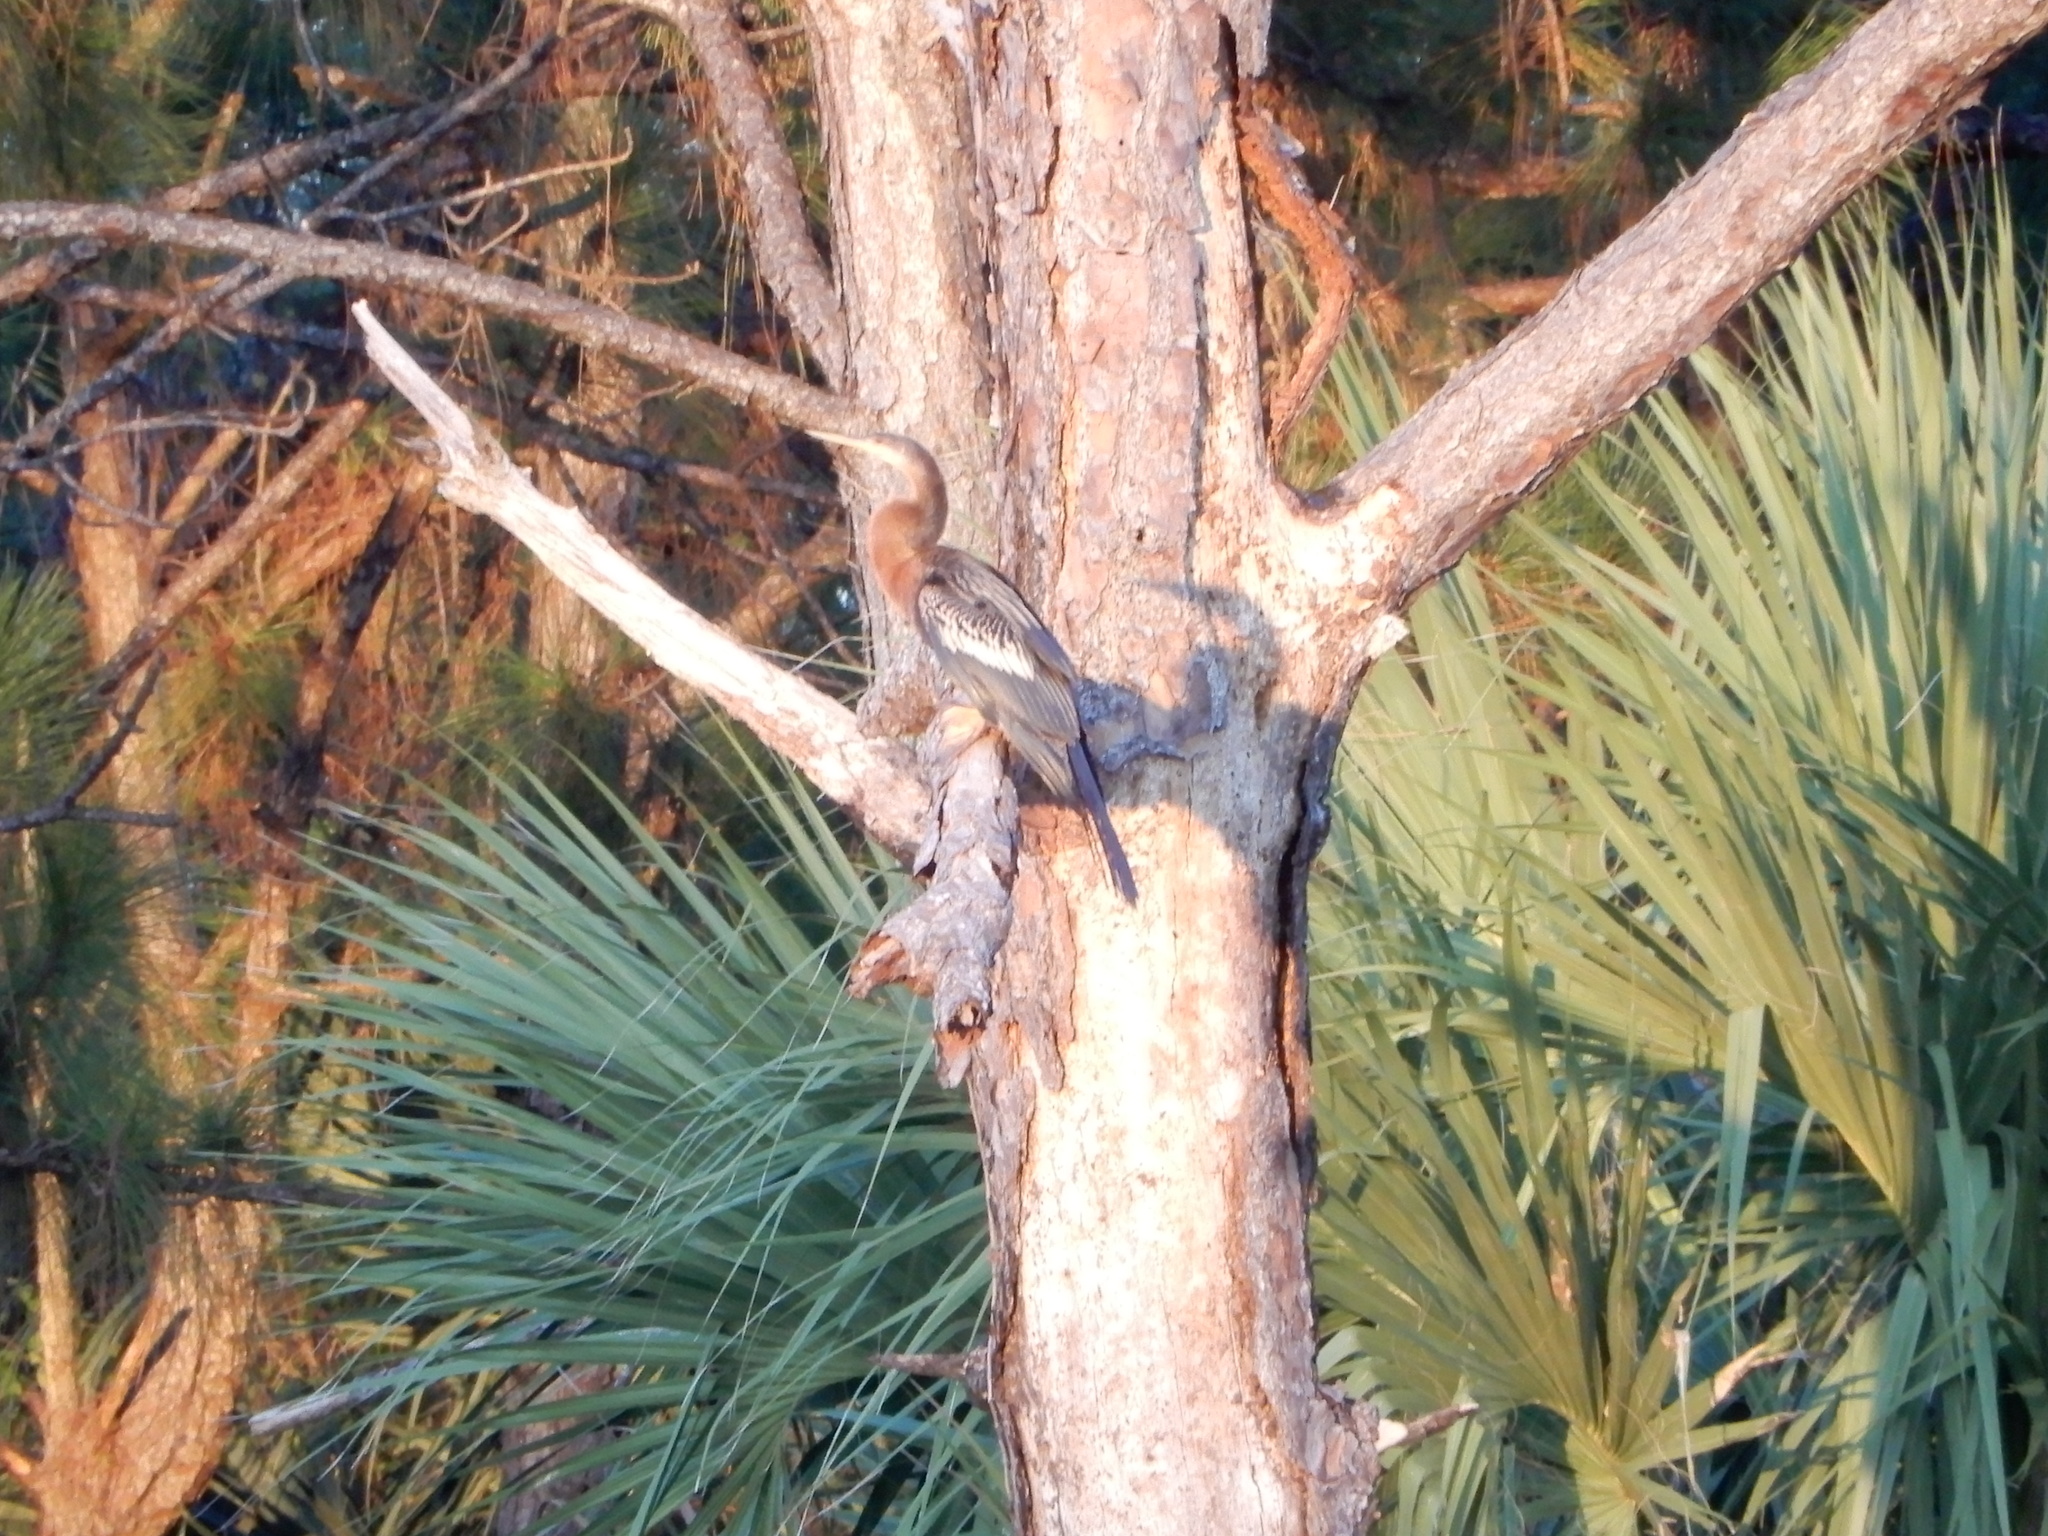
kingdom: Animalia
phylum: Chordata
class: Aves
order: Suliformes
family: Anhingidae
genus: Anhinga
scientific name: Anhinga anhinga
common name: Anhinga
